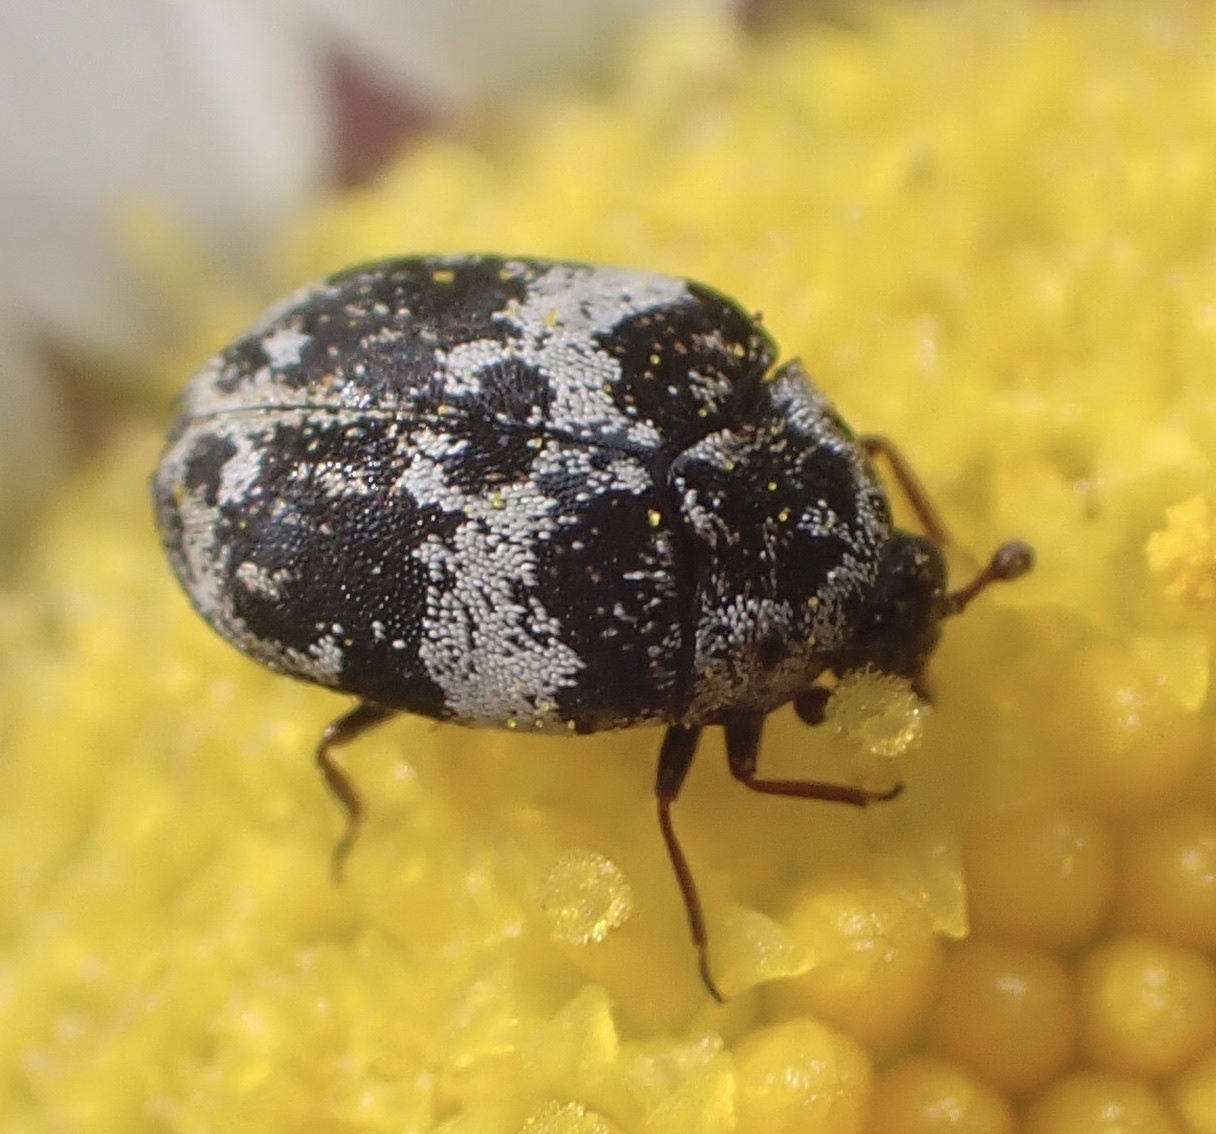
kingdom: Animalia
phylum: Arthropoda
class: Insecta
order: Coleoptera
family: Dermestidae
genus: Anthrenus
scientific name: Anthrenus pimpinellae
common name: Dermestid beetle
